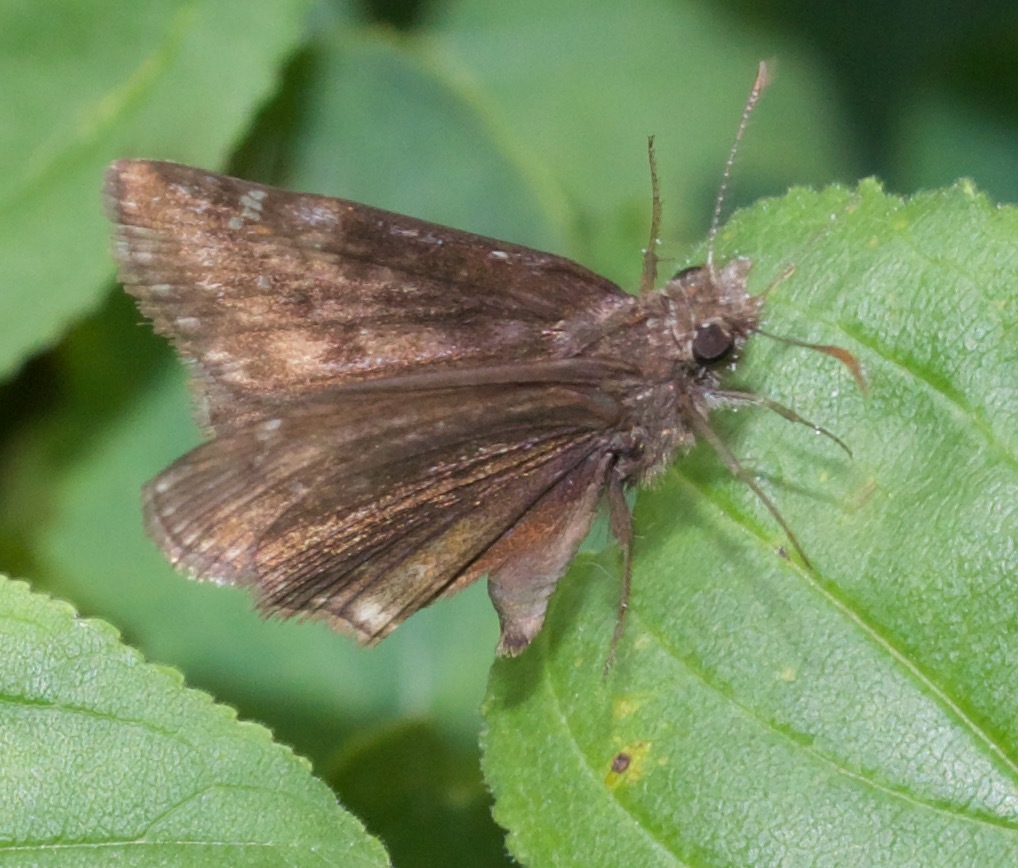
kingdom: Animalia
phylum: Arthropoda
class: Insecta
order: Lepidoptera
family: Hesperiidae
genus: Erynnis
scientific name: Erynnis baptisiae
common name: Wild indigo duskywing
